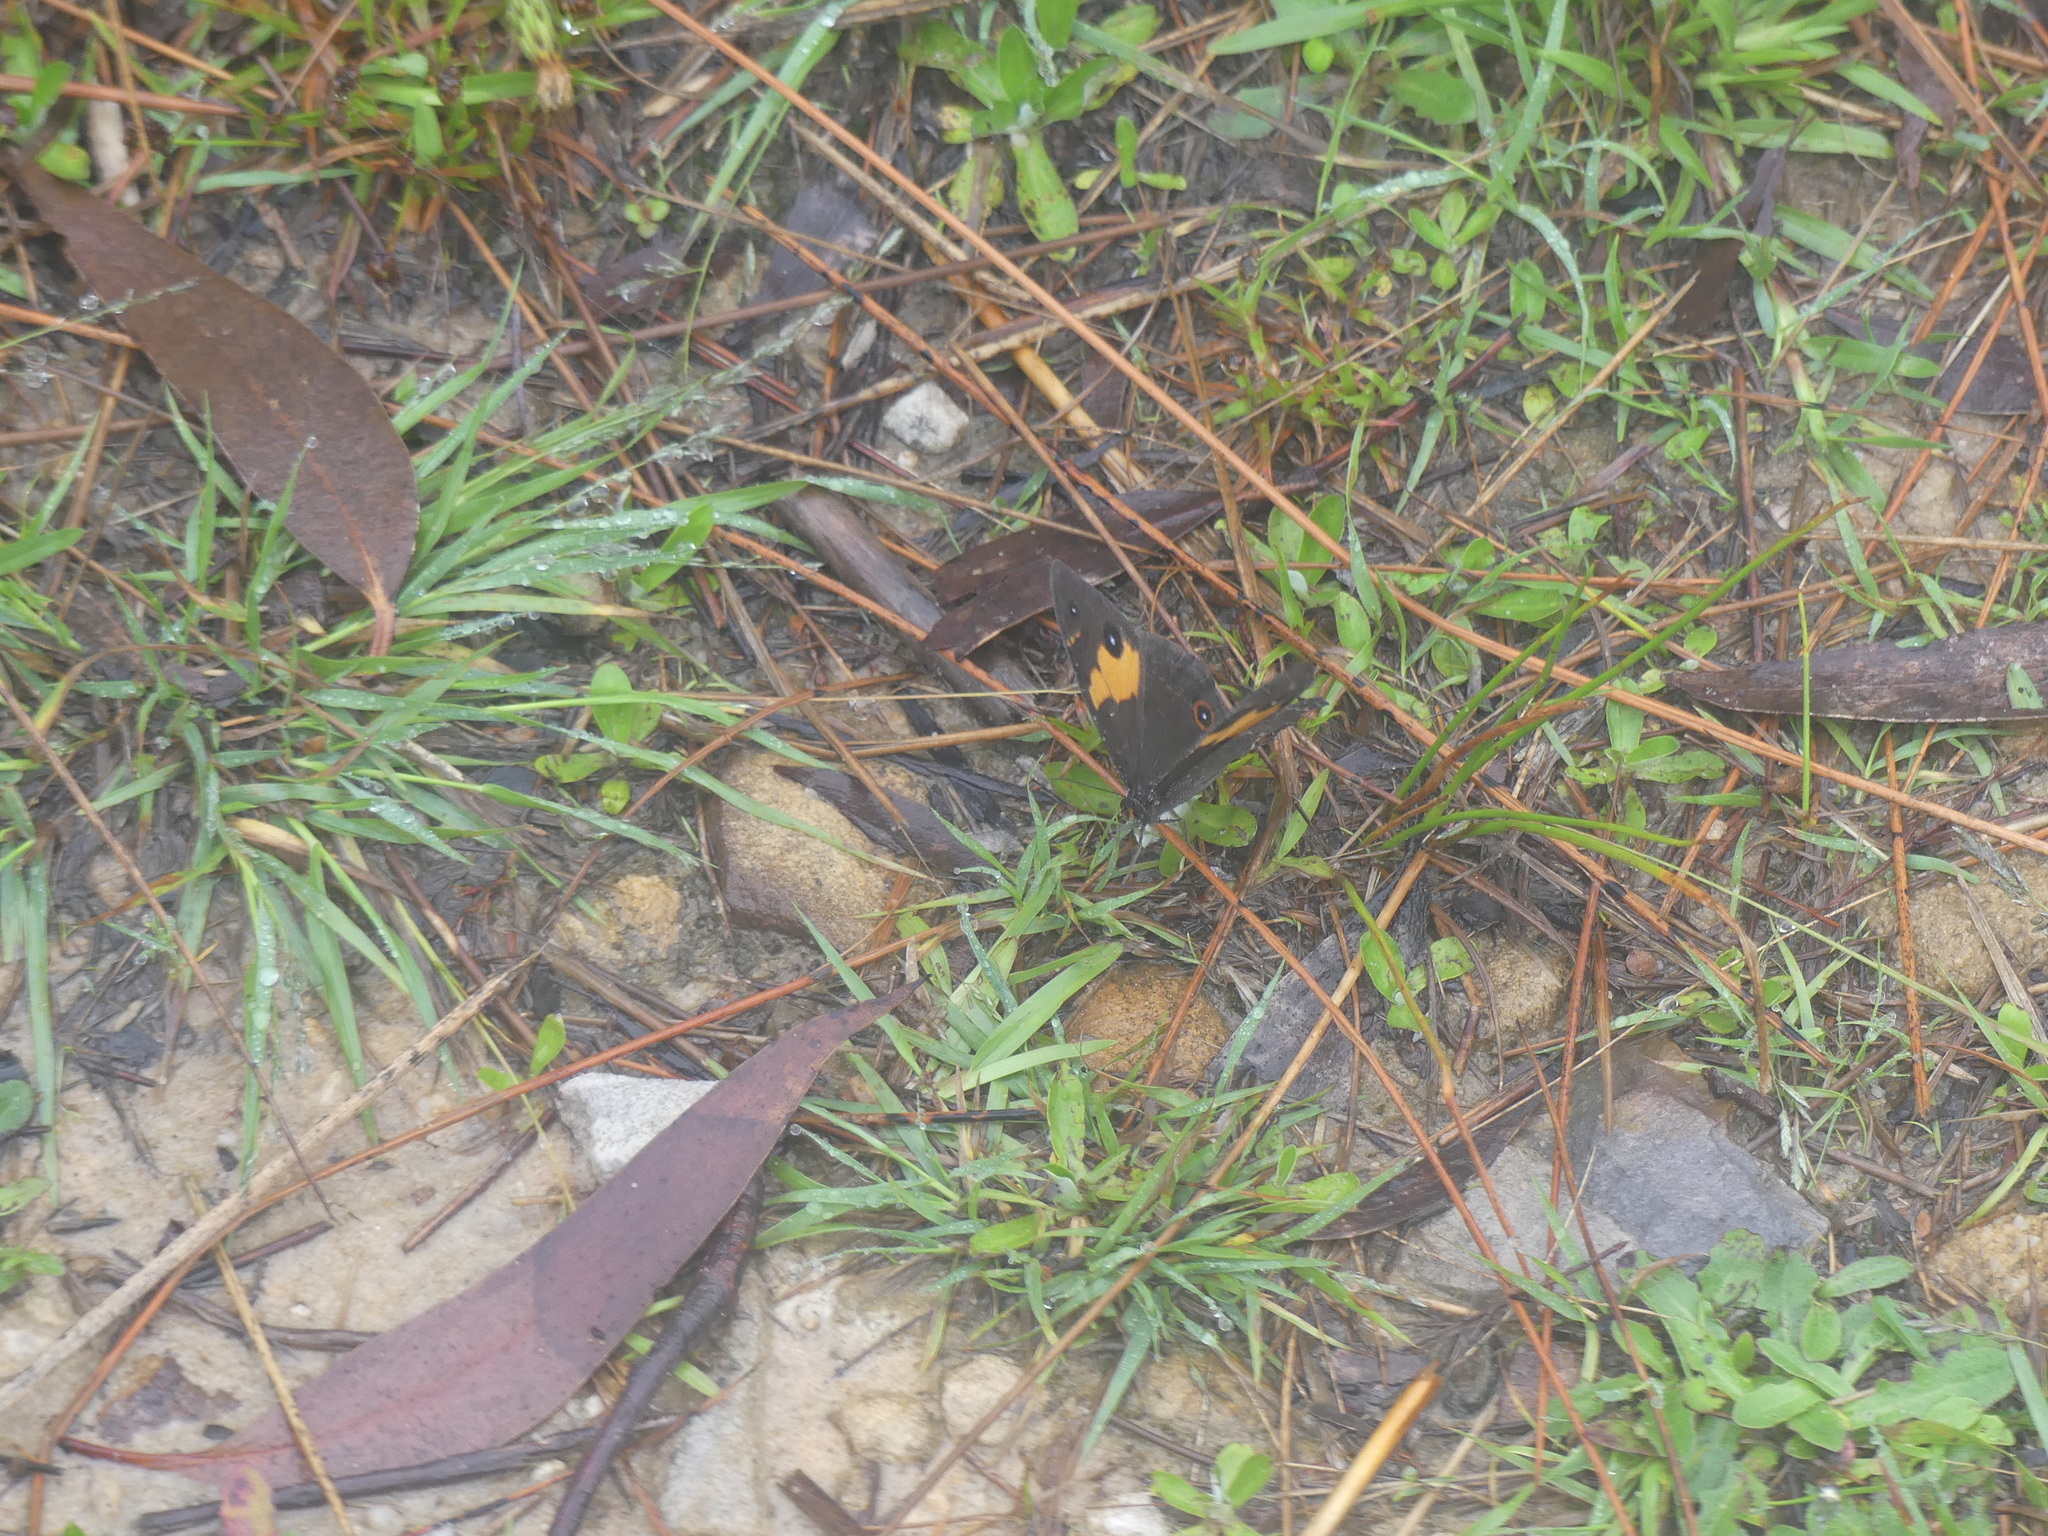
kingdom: Animalia
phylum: Arthropoda
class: Insecta
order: Lepidoptera
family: Nymphalidae
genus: Tisiphone
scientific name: Tisiphone abeona
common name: Swordgrass brown
